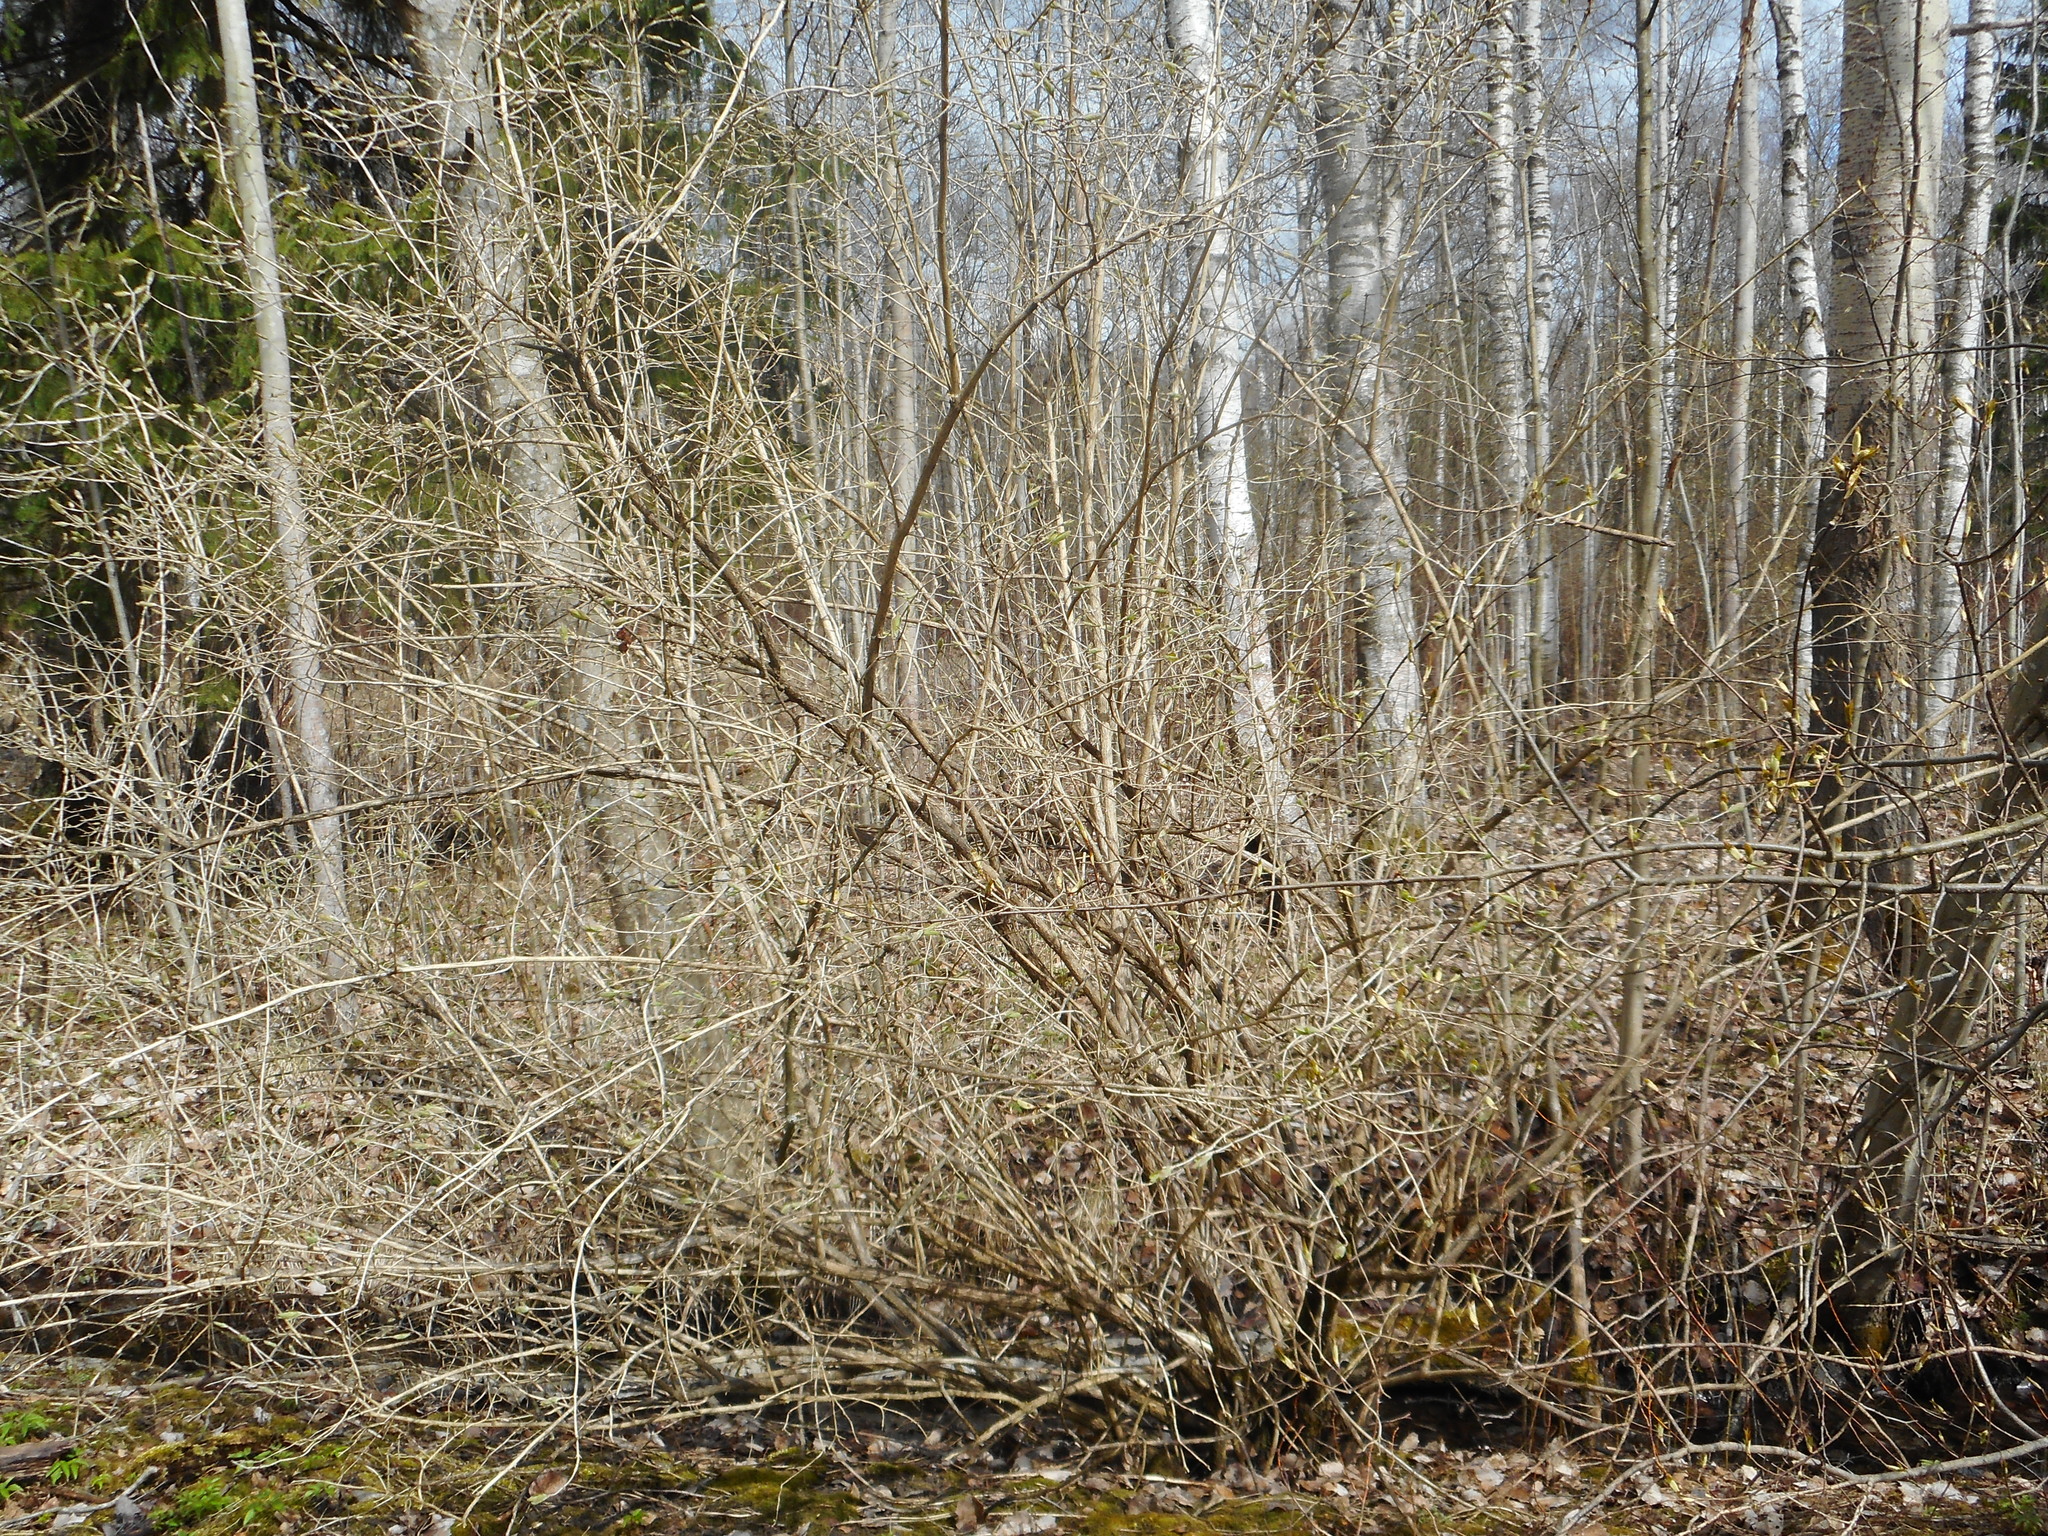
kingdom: Plantae
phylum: Tracheophyta
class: Magnoliopsida
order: Dipsacales
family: Caprifoliaceae
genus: Lonicera
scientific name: Lonicera xylosteum
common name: Fly honeysuckle
